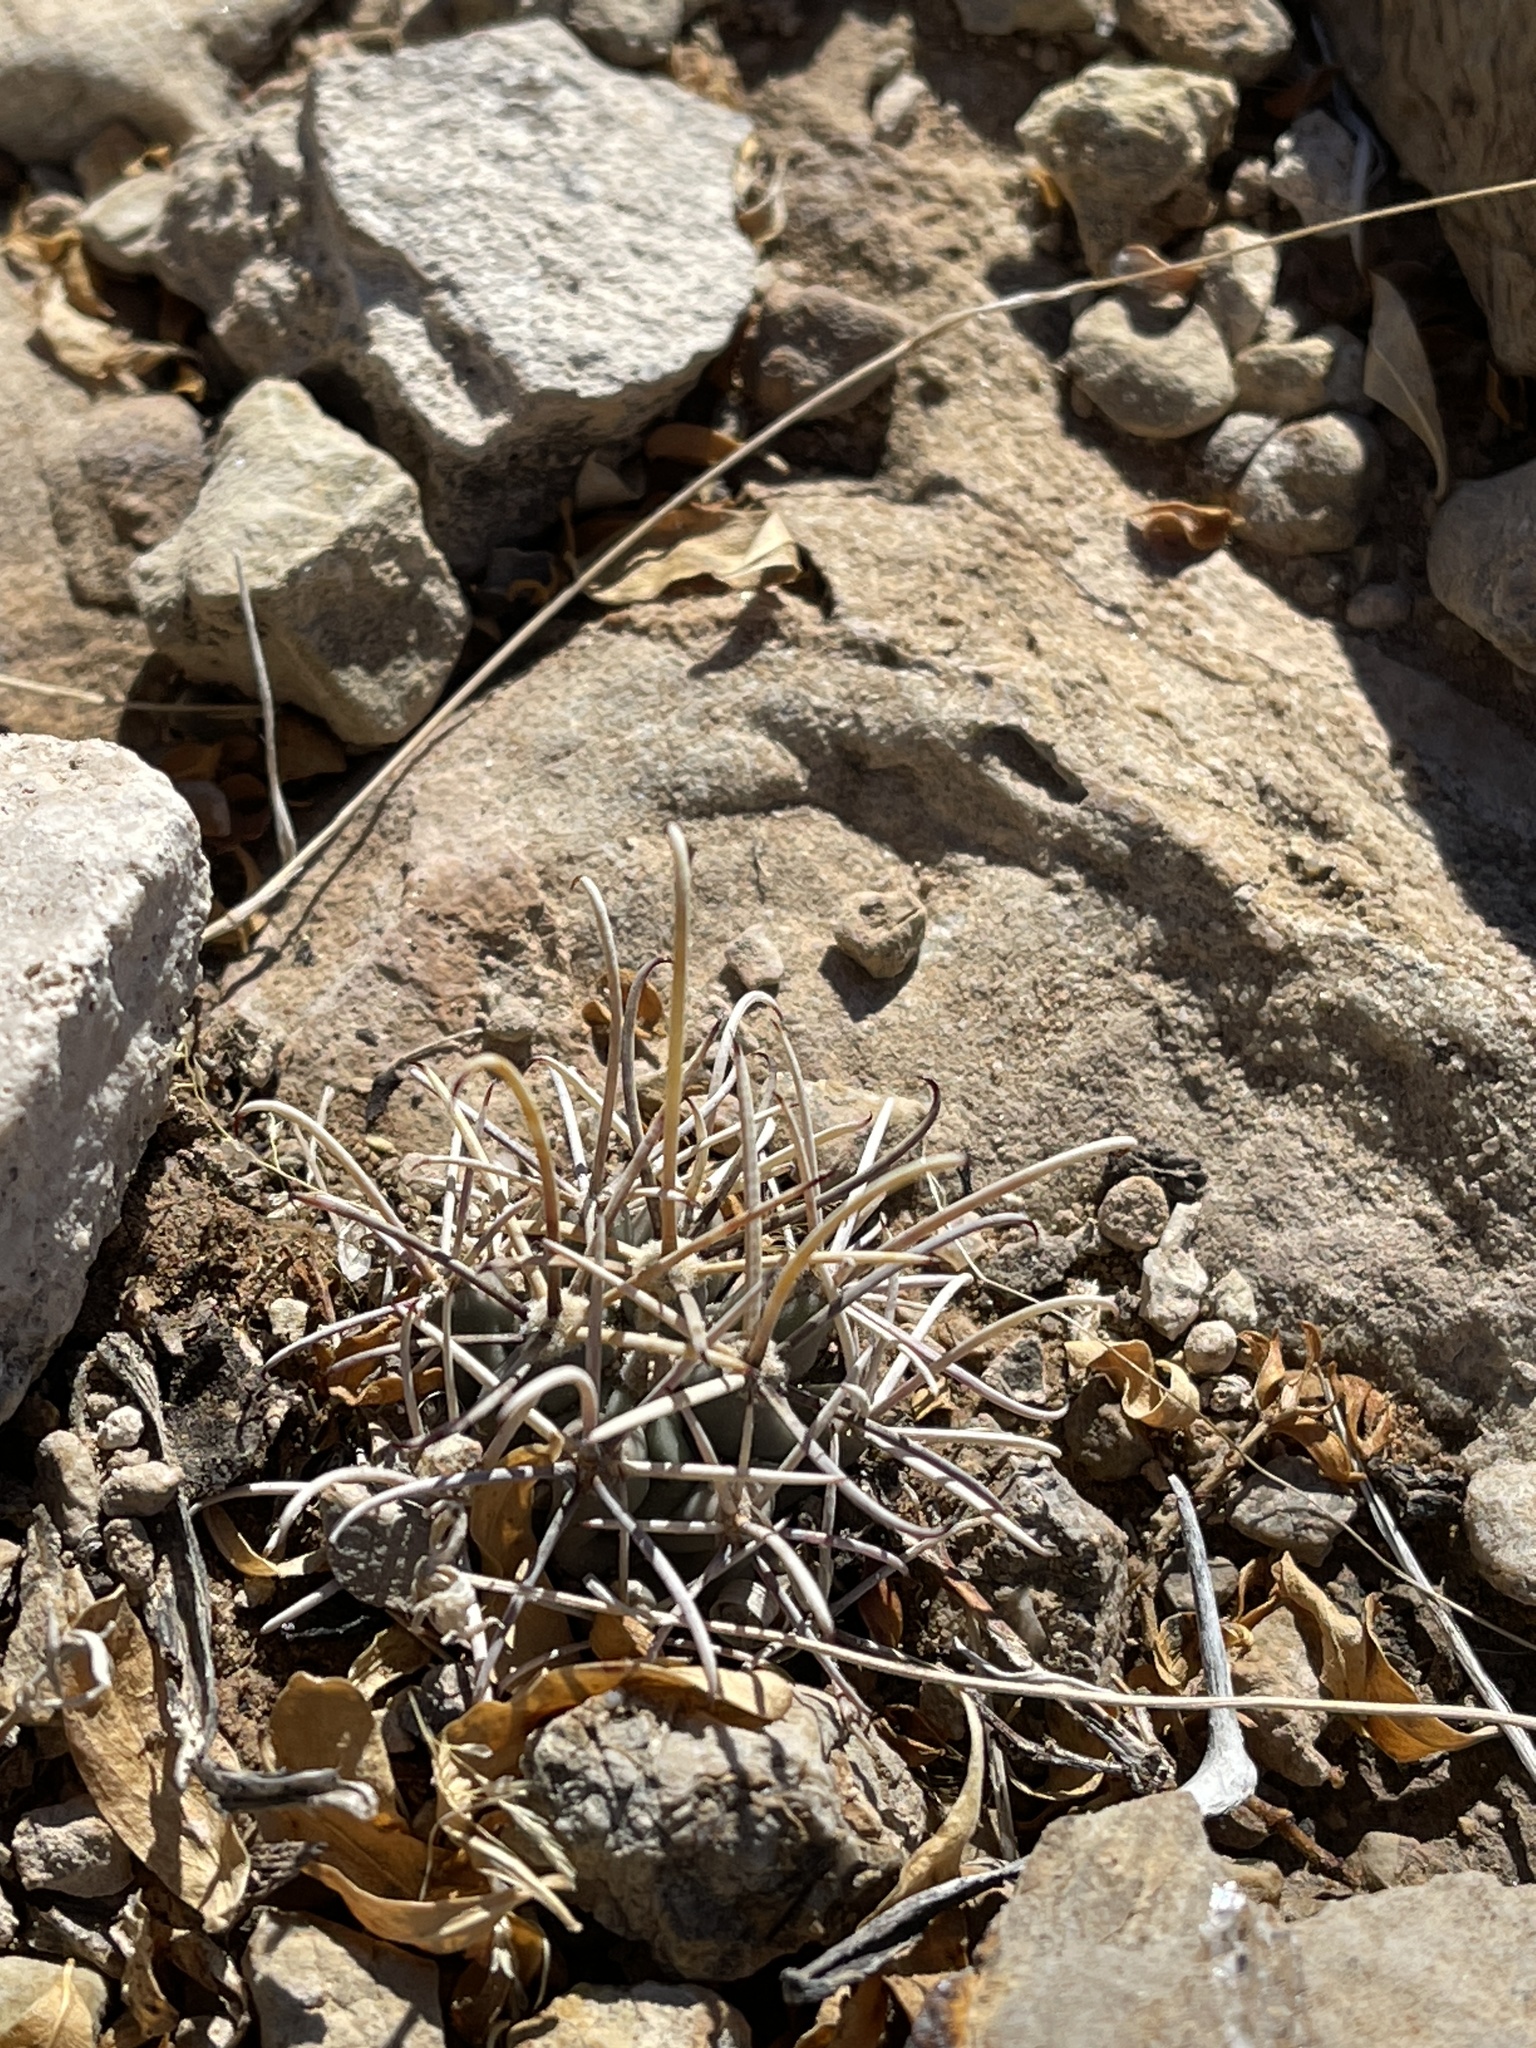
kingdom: Plantae
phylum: Tracheophyta
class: Magnoliopsida
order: Caryophyllales
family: Cactaceae
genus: Ferocactus
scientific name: Ferocactus uncinatus
